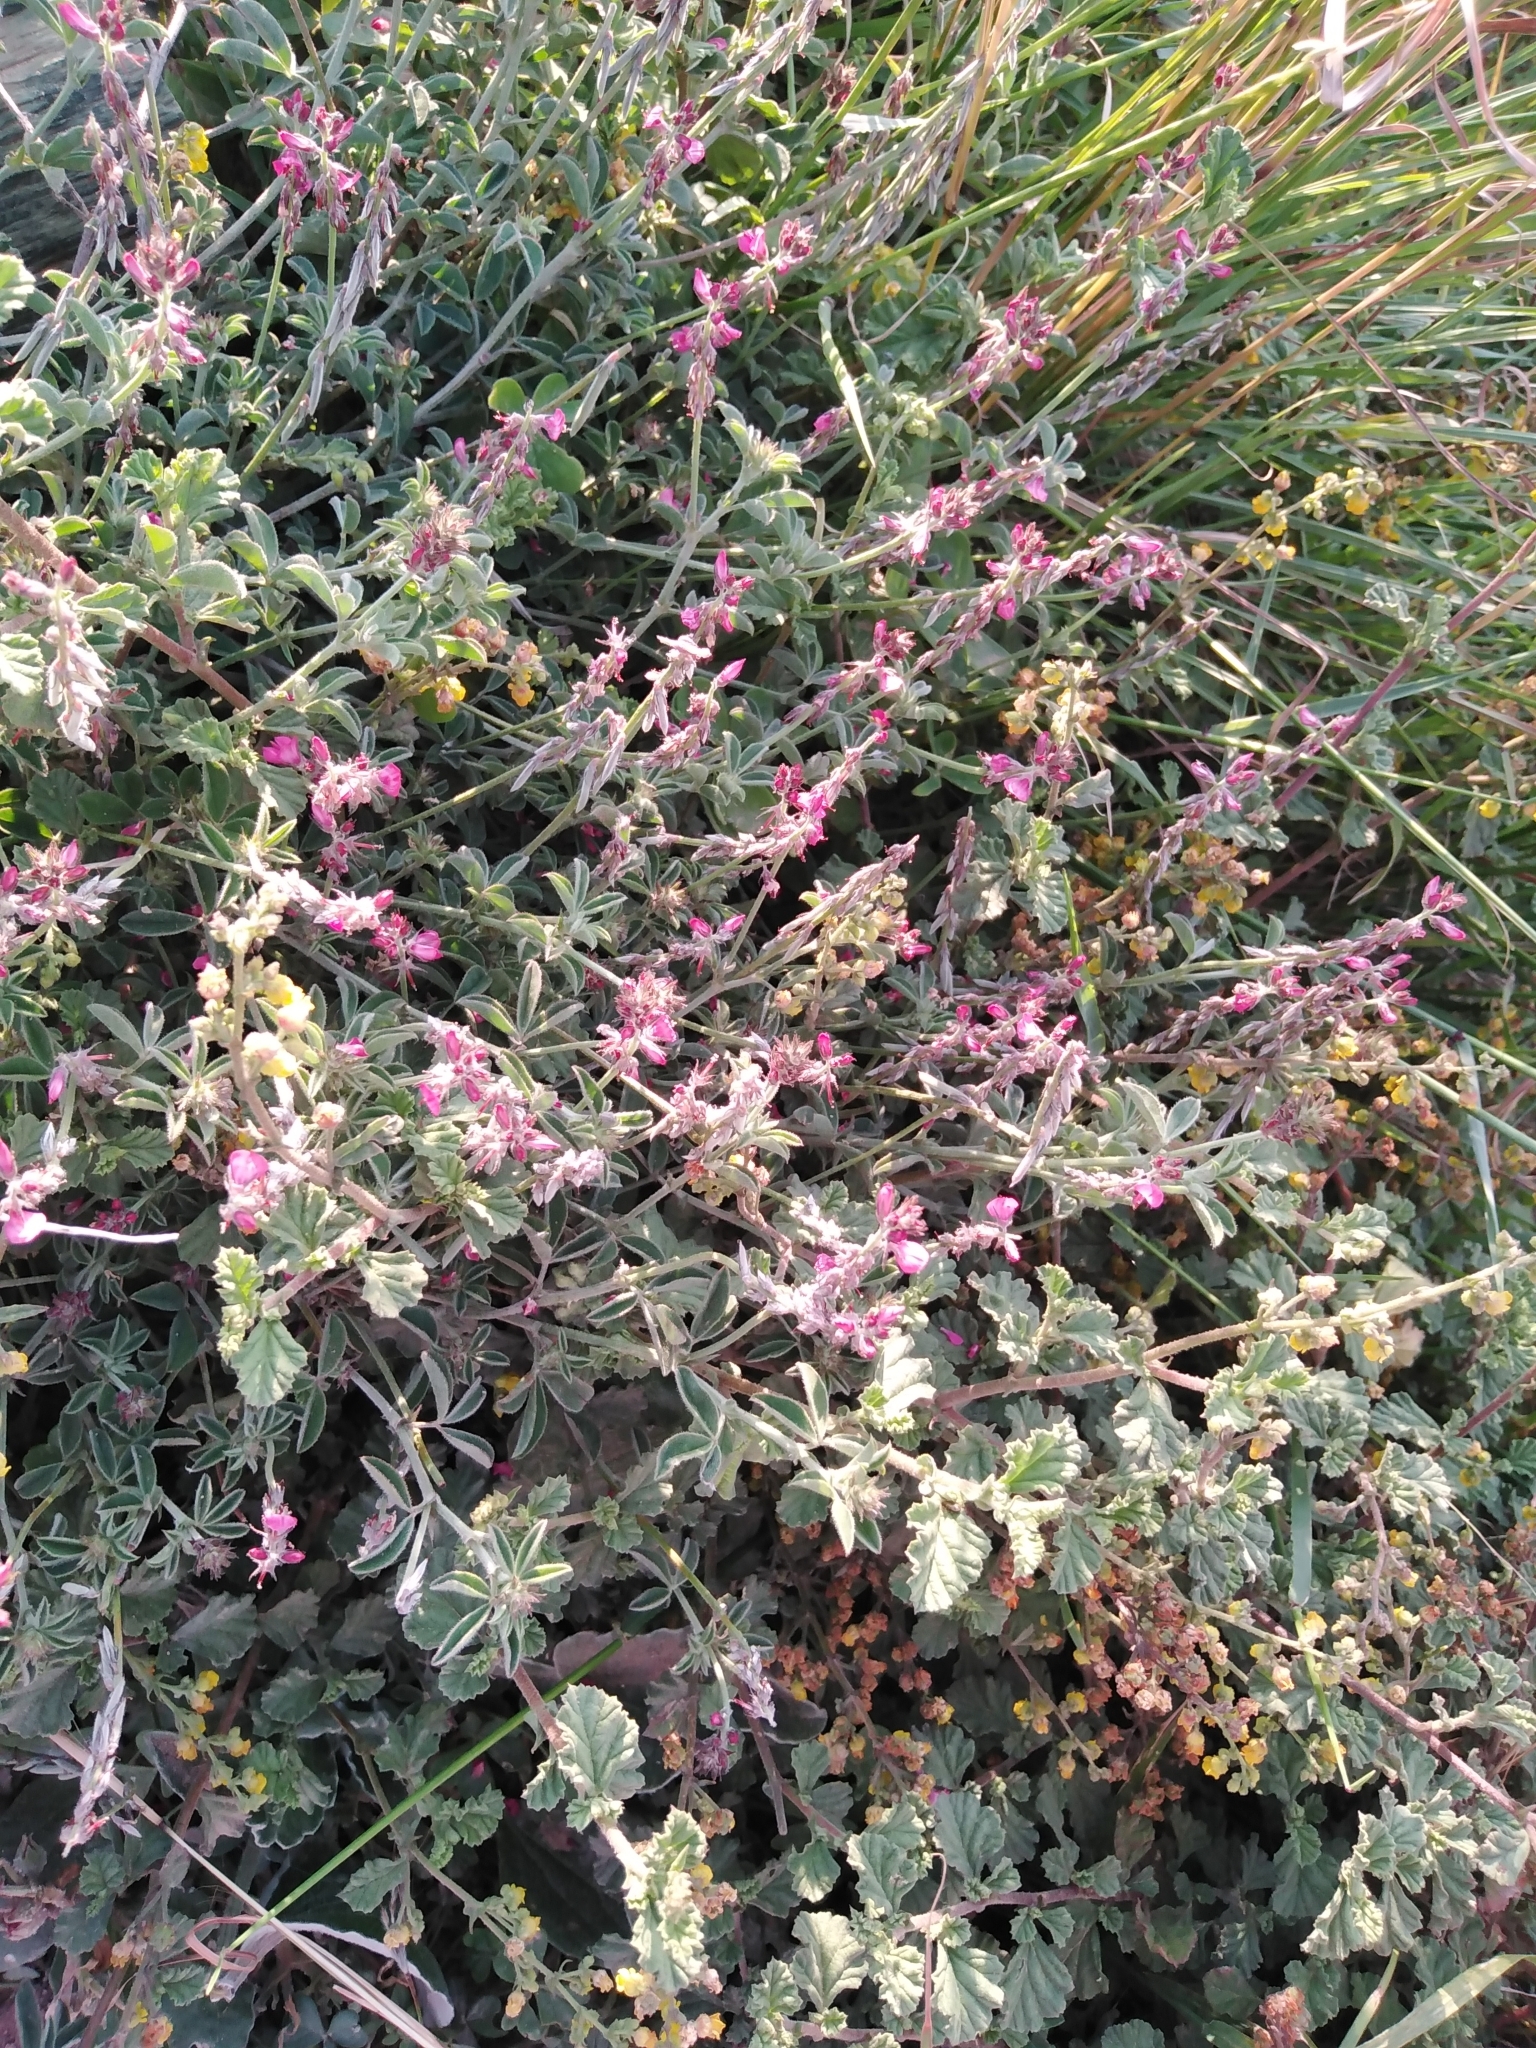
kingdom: Plantae
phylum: Tracheophyta
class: Magnoliopsida
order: Fabales
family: Fabaceae
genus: Indigofera
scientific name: Indigofera incana
